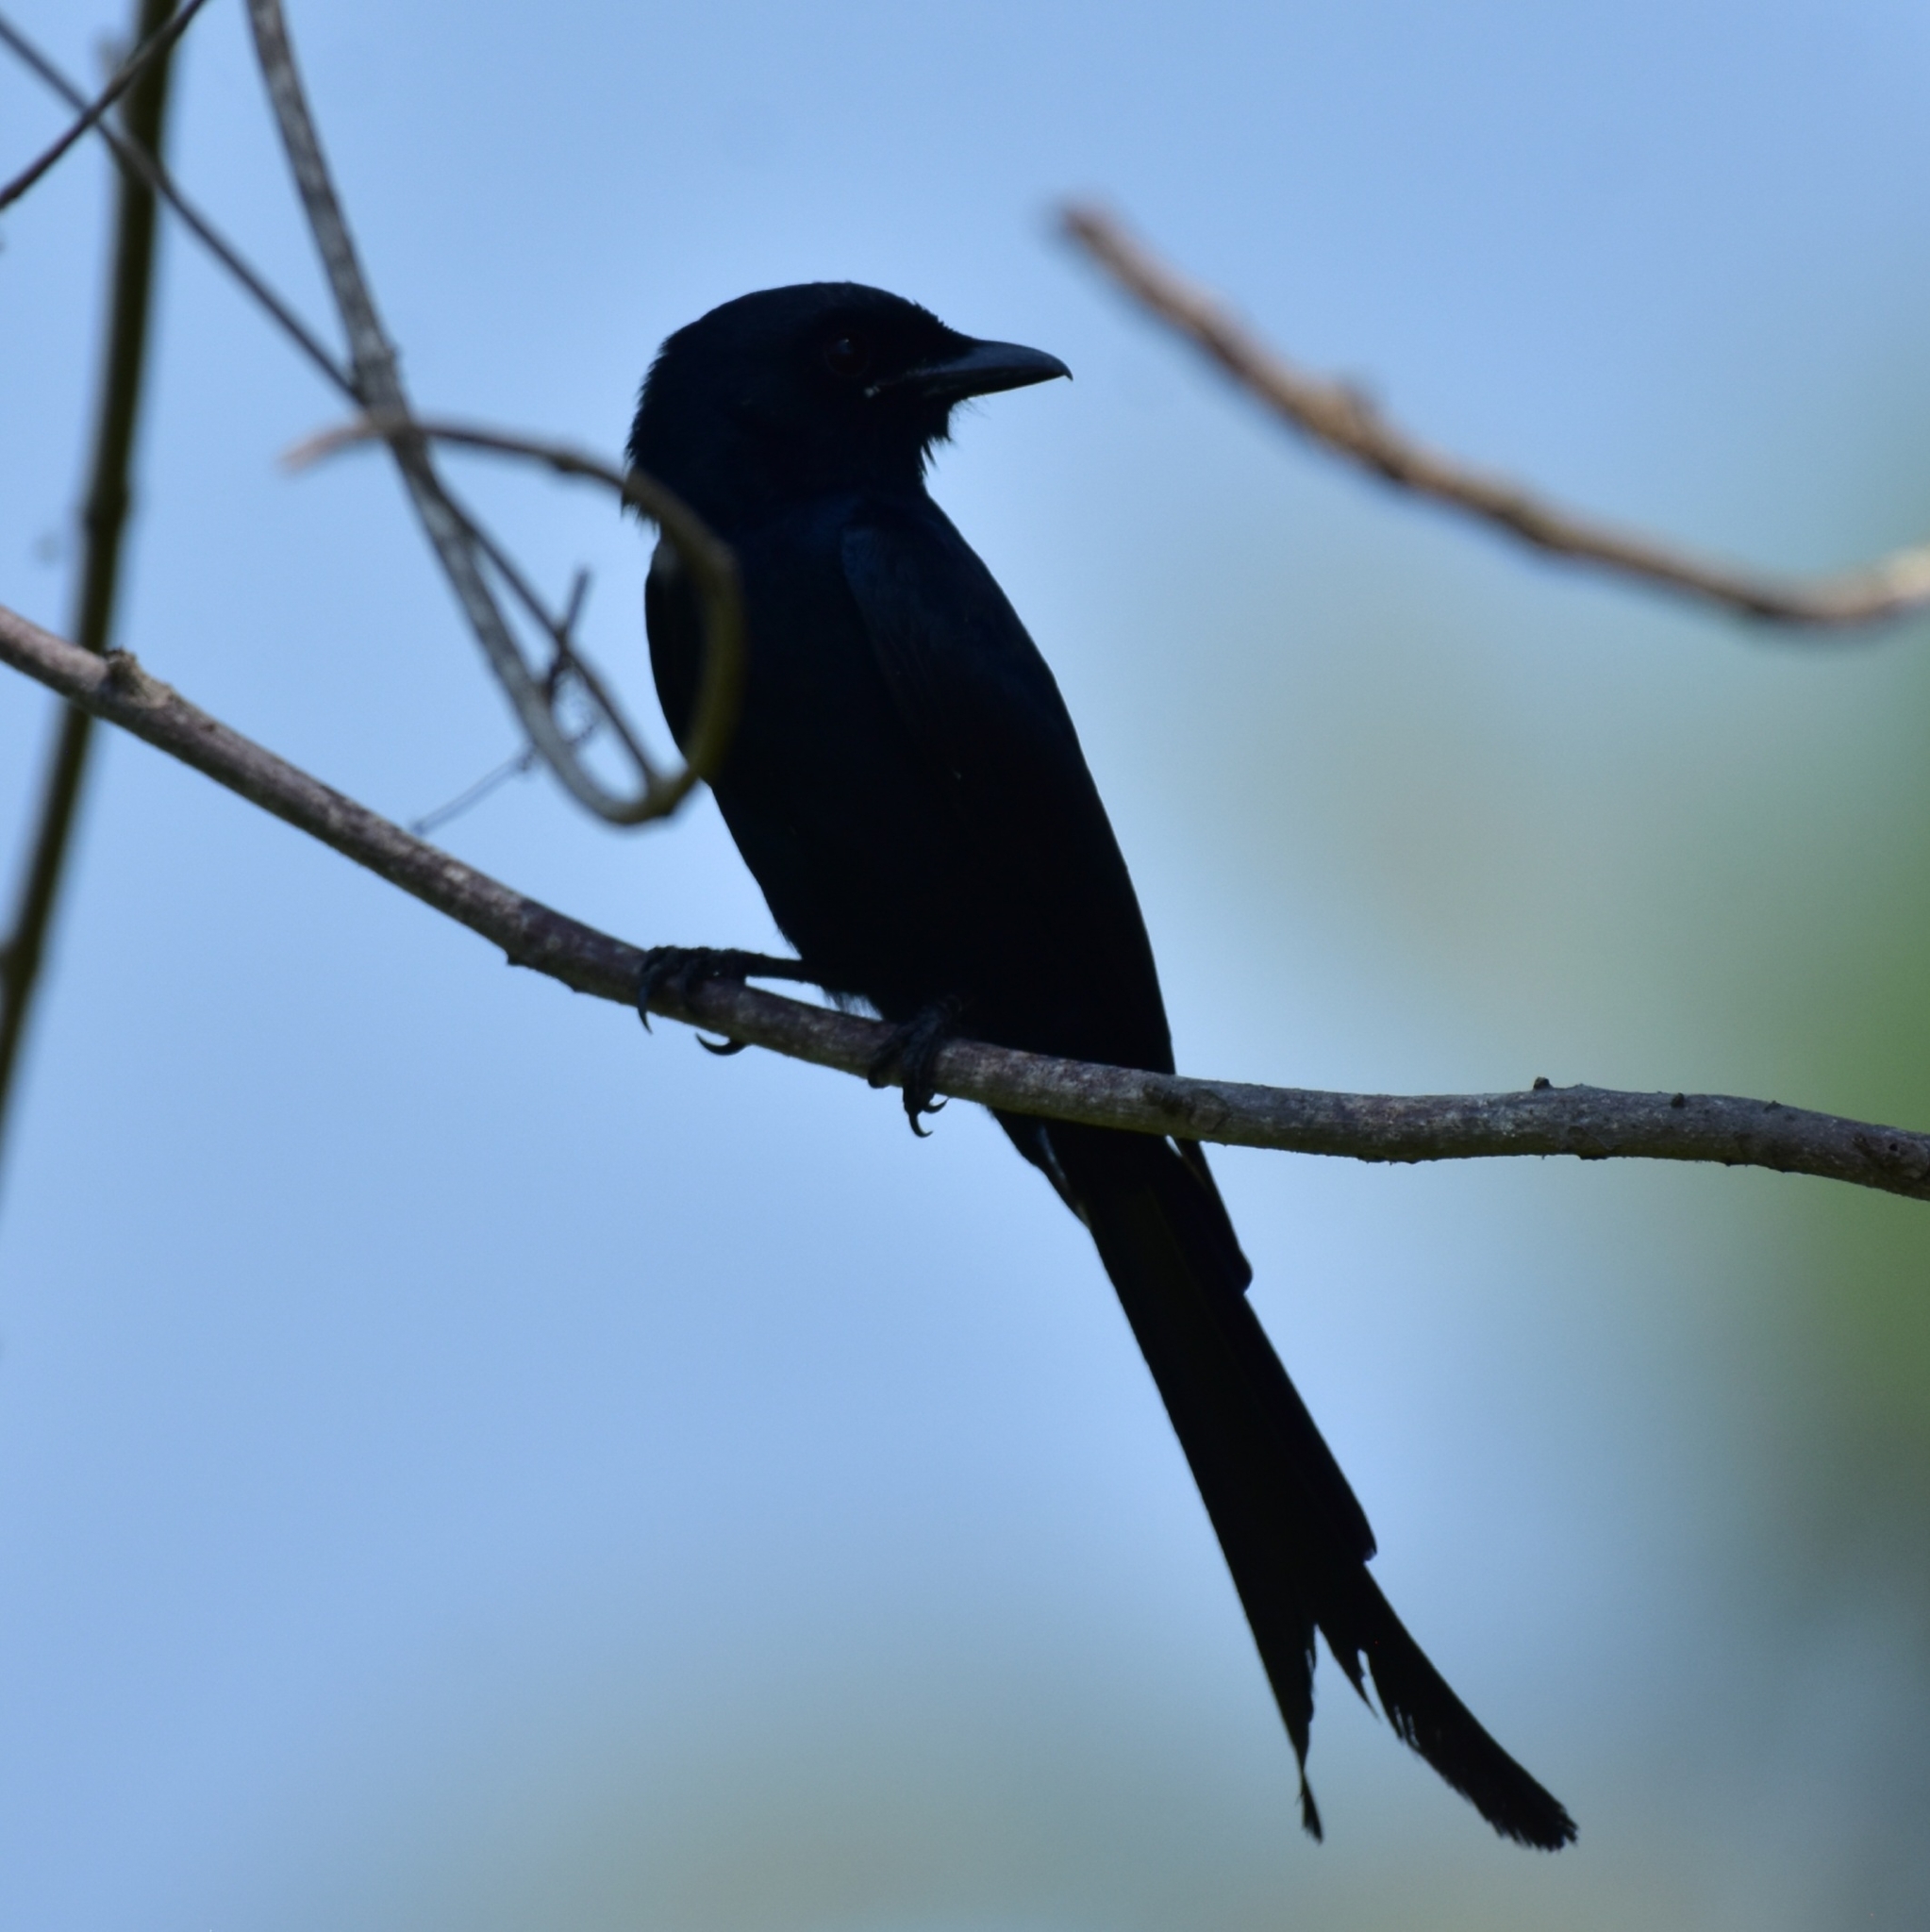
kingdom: Animalia
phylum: Chordata
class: Aves
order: Passeriformes
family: Dicruridae
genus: Dicrurus
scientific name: Dicrurus macrocercus
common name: Black drongo
